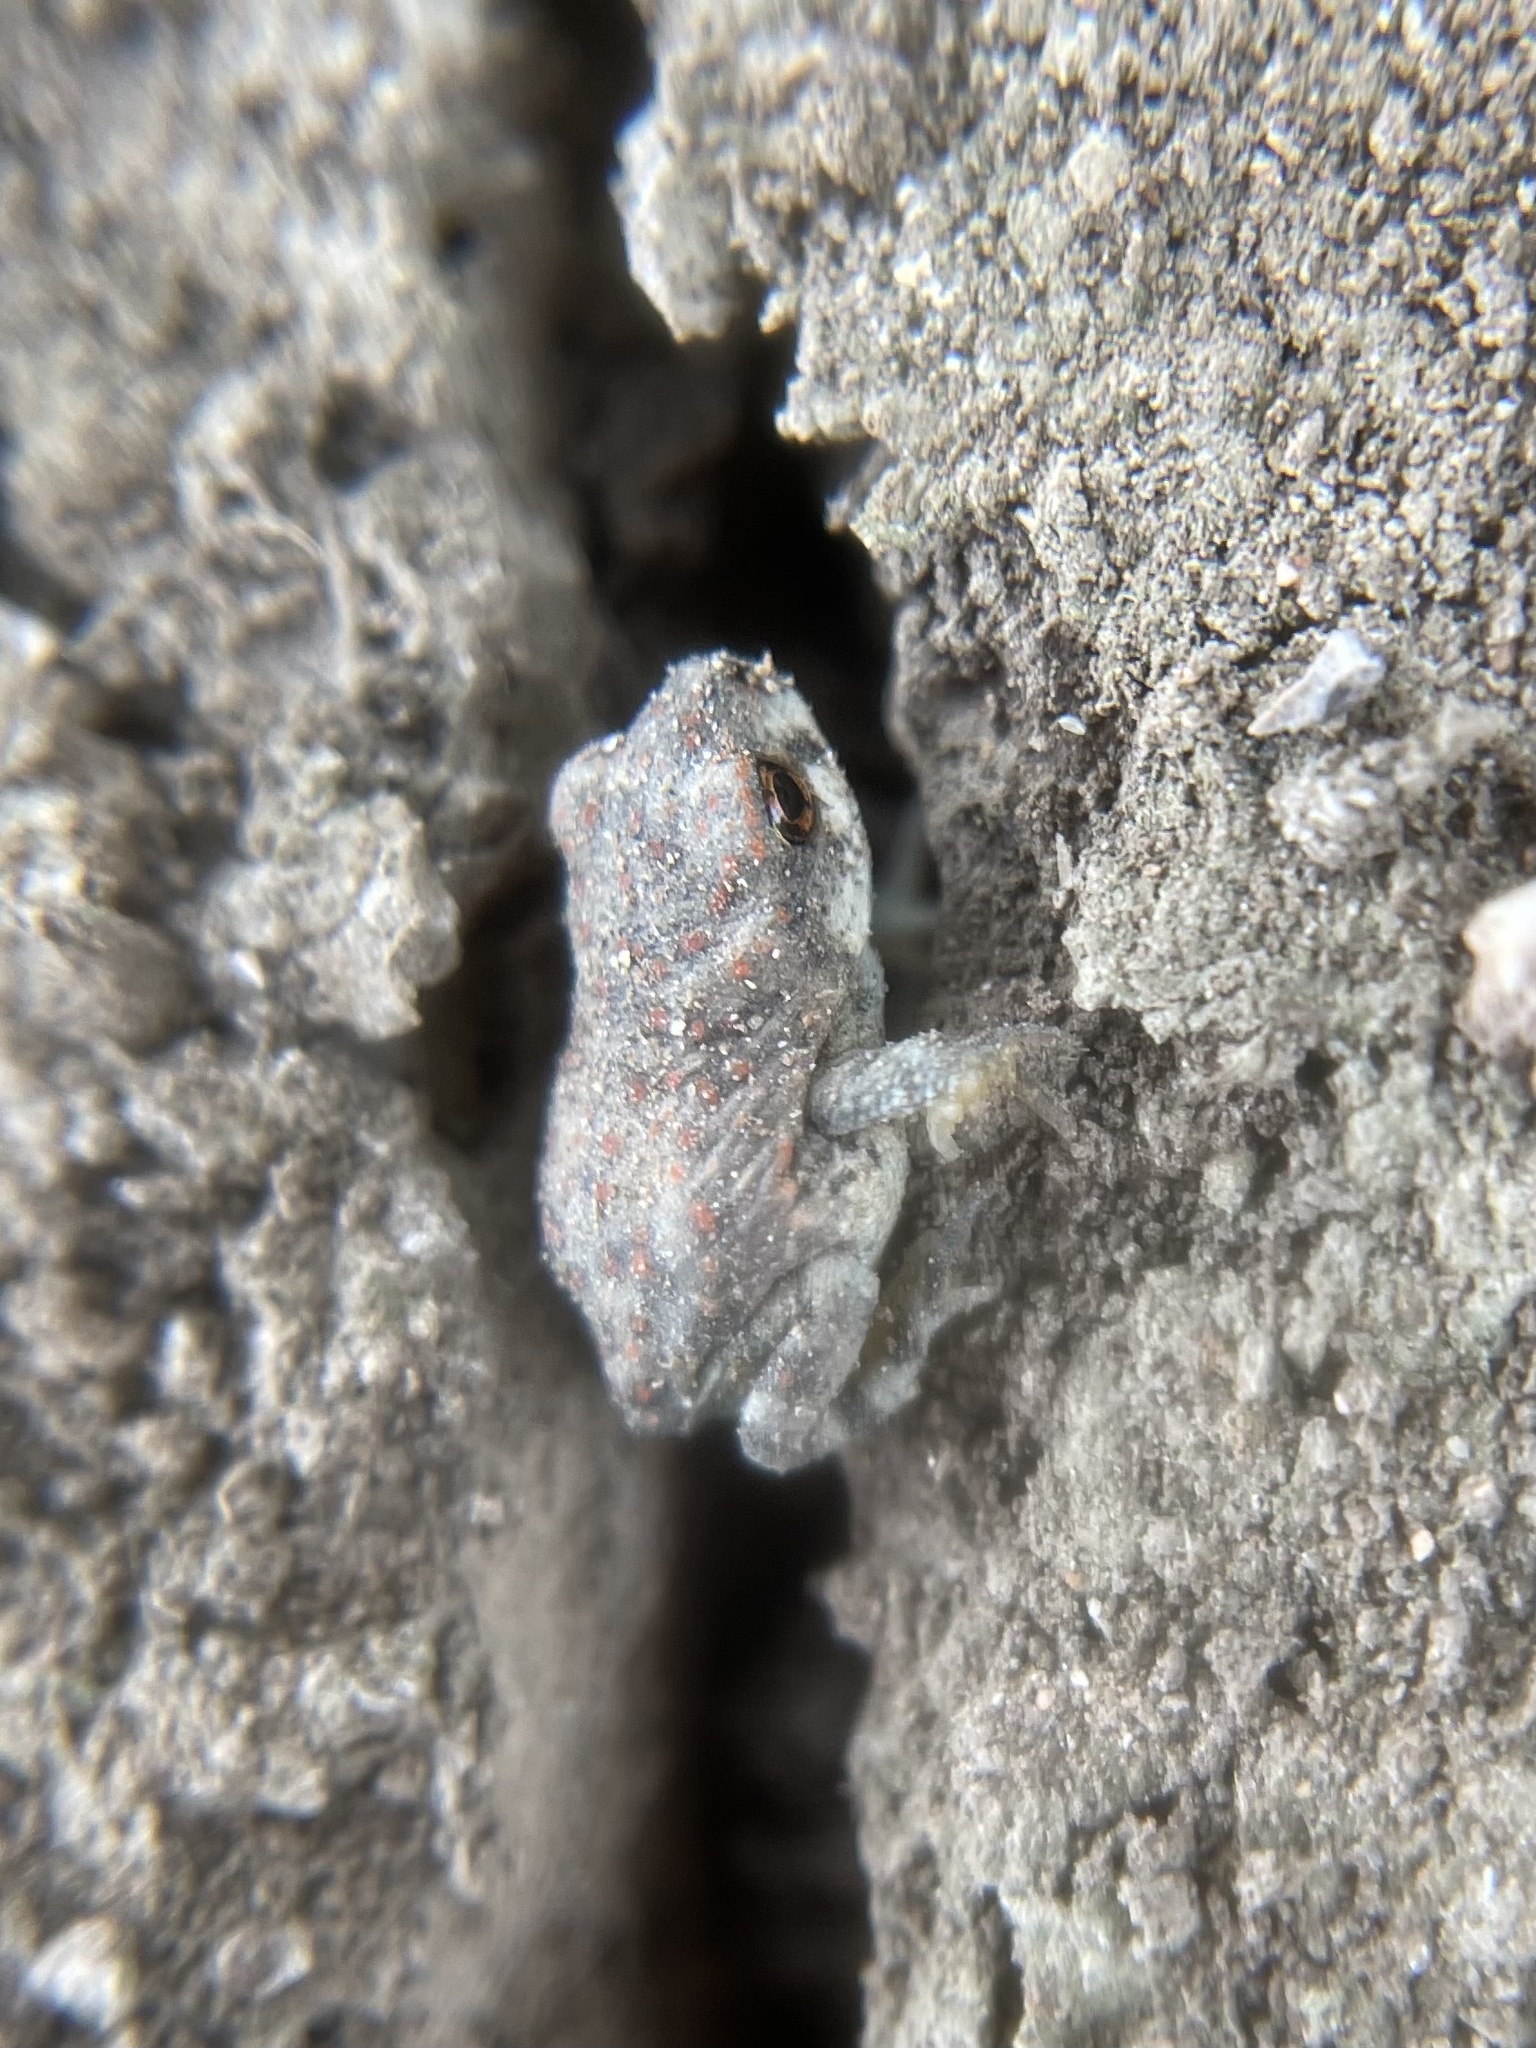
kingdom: Animalia
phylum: Chordata
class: Amphibia
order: Anura
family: Bufonidae
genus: Anaxyrus
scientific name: Anaxyrus punctatus
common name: Red-spotted toad
